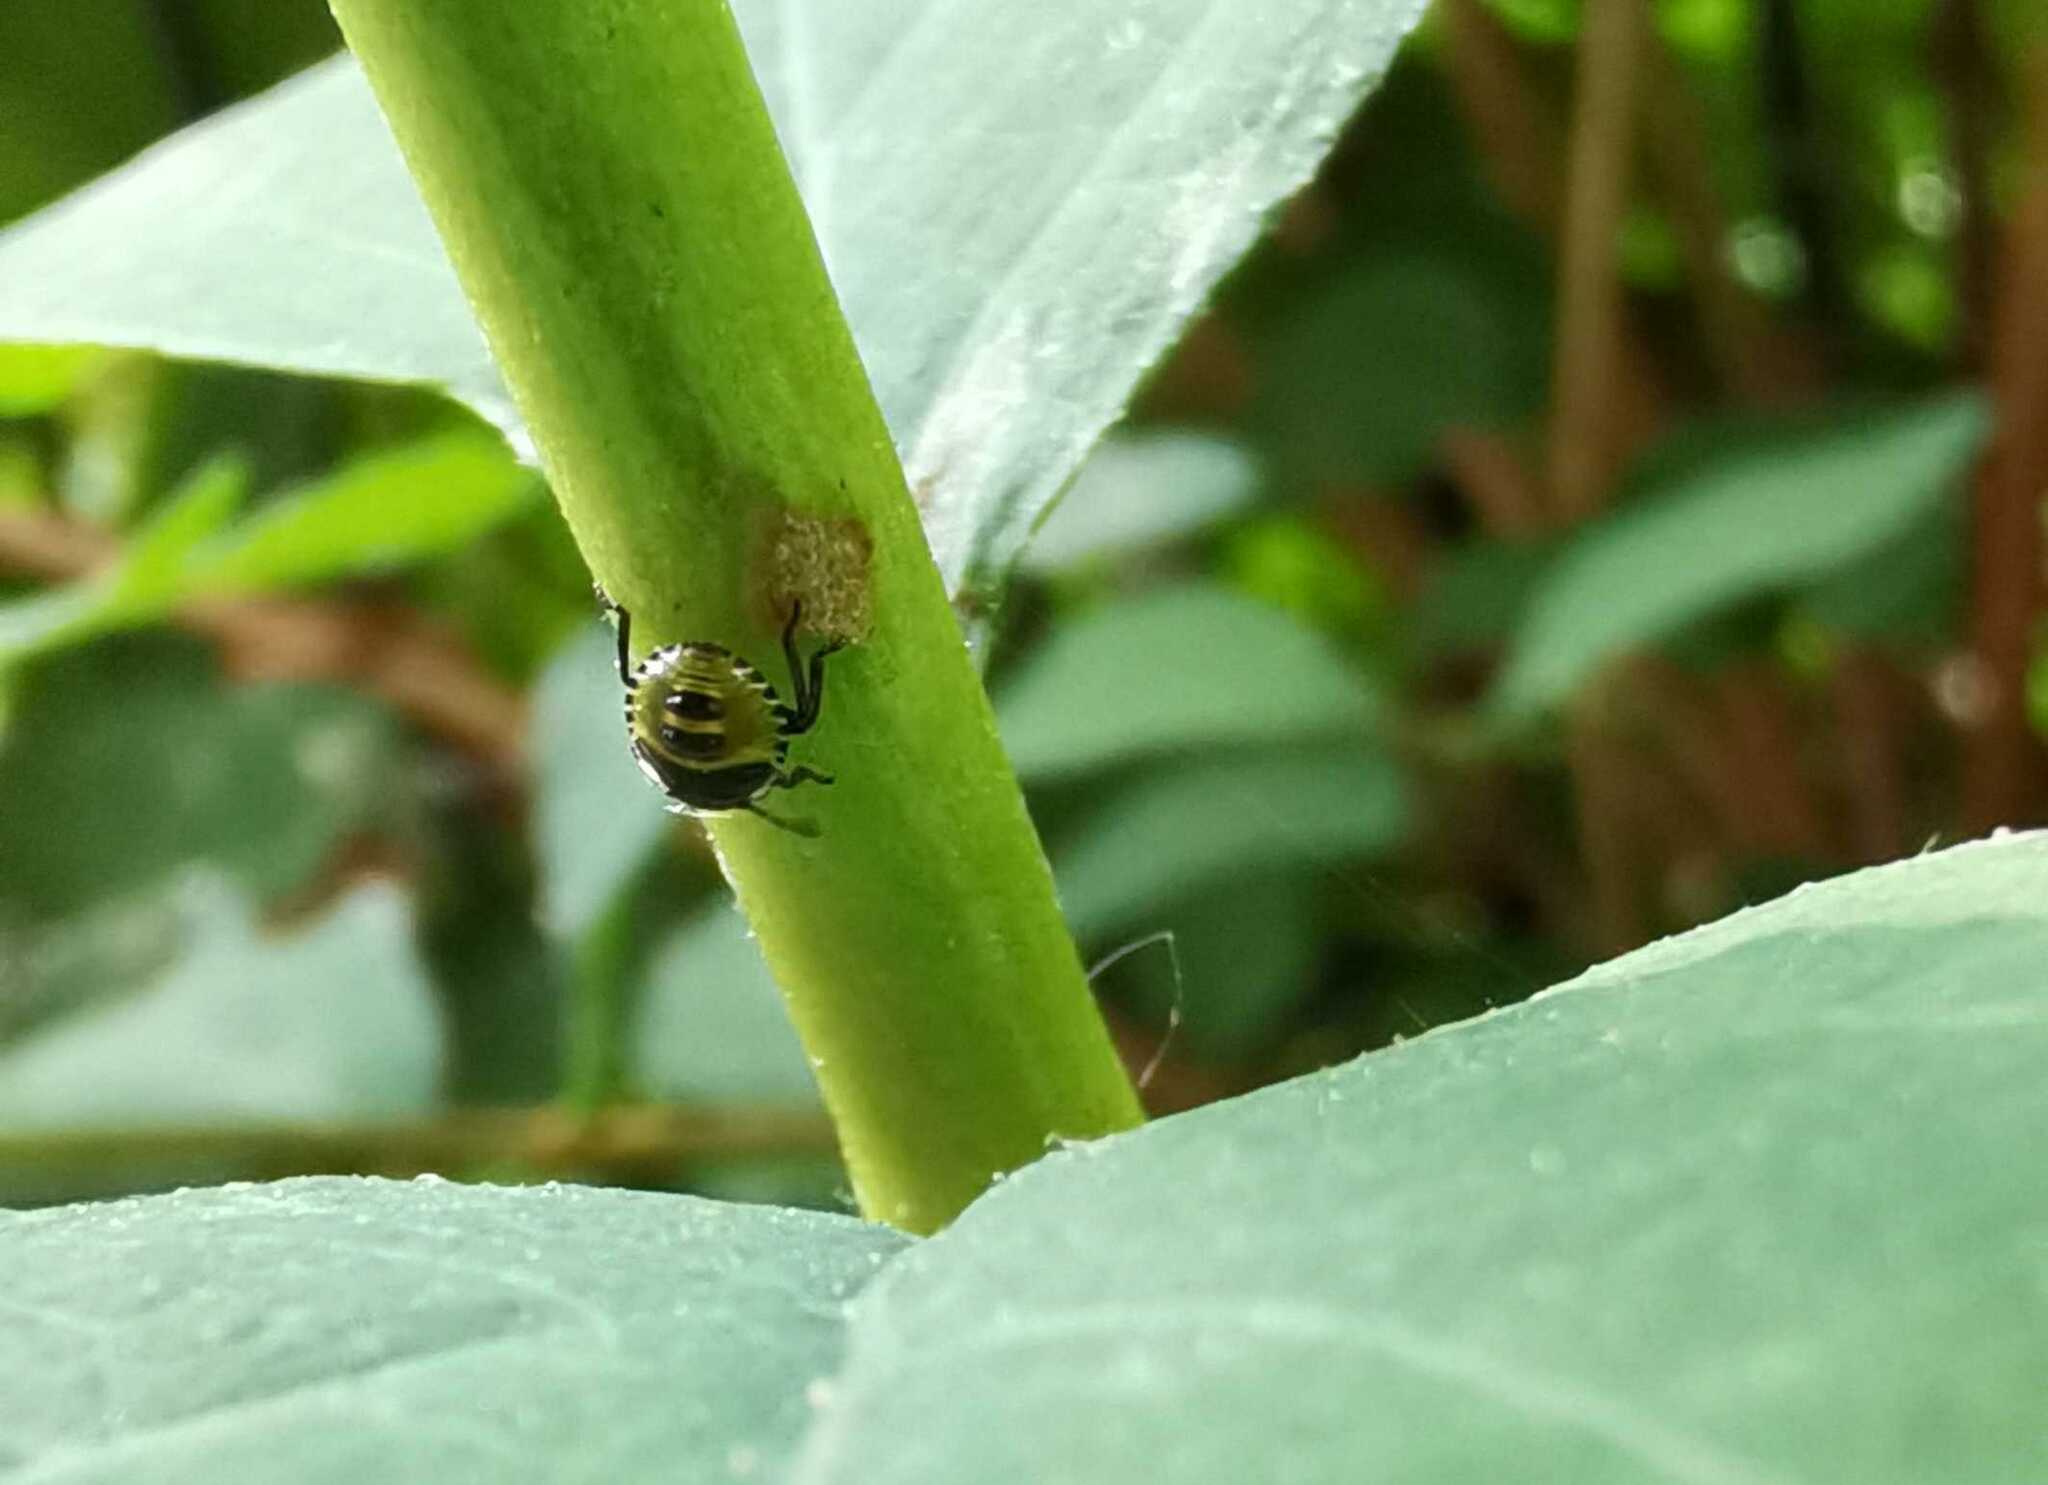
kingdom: Animalia
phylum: Arthropoda
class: Insecta
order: Hemiptera
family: Pentatomidae
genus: Palomena
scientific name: Palomena prasina
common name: Green shieldbug
